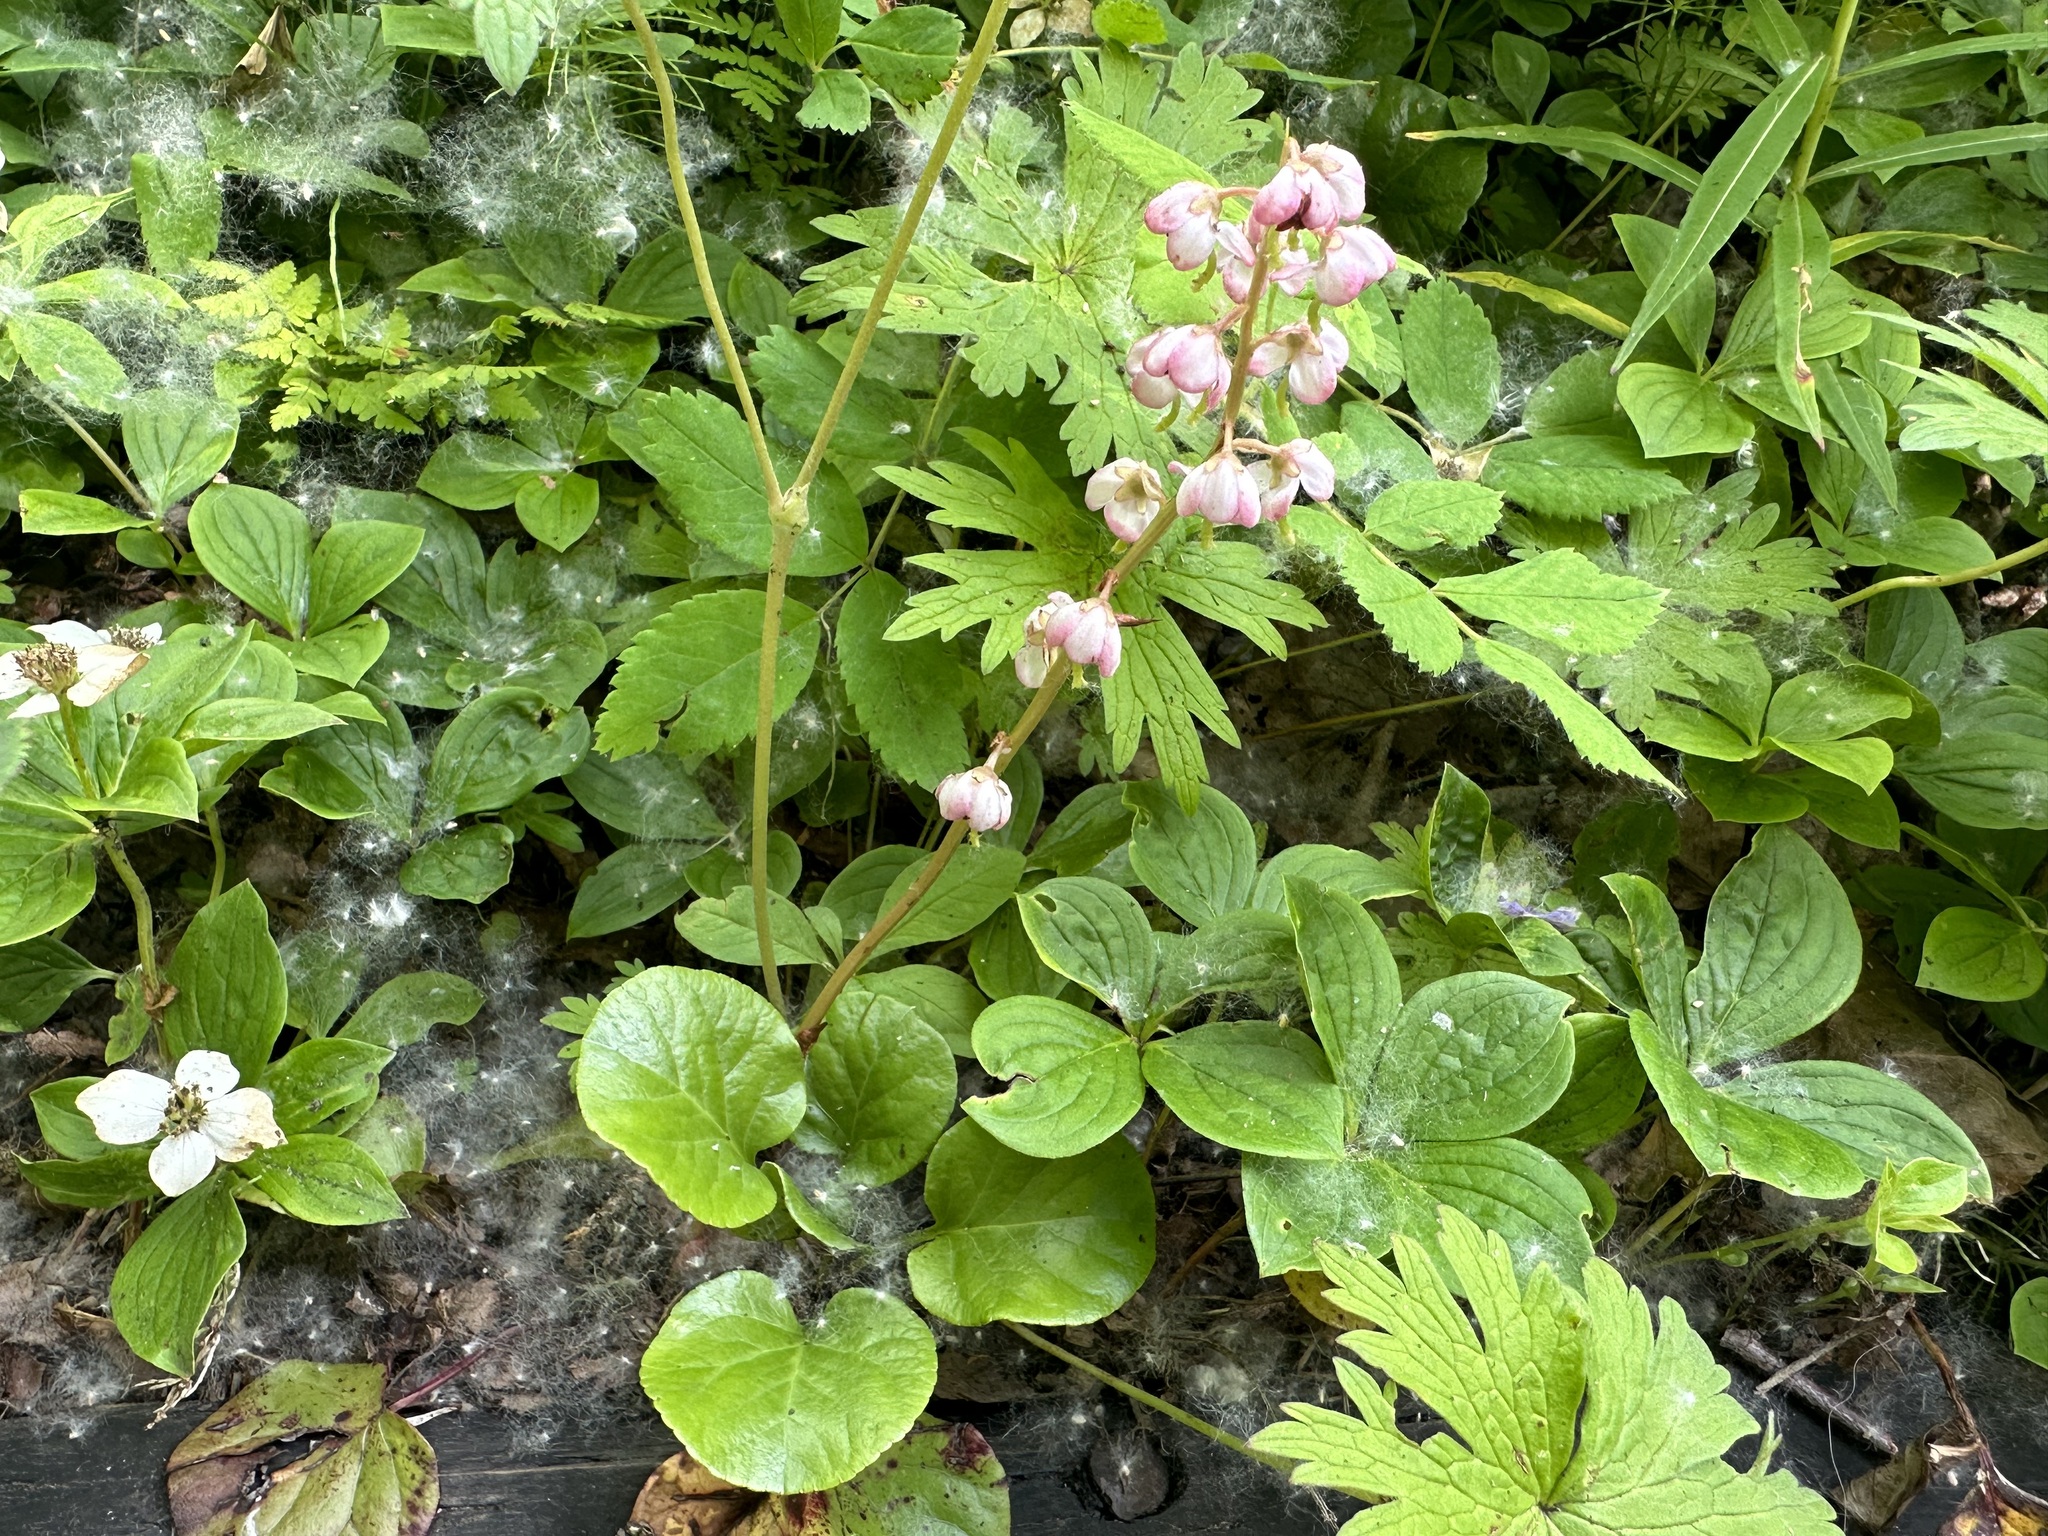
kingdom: Plantae
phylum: Tracheophyta
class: Magnoliopsida
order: Ericales
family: Ericaceae
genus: Pyrola
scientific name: Pyrola asarifolia
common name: Bog wintergreen
